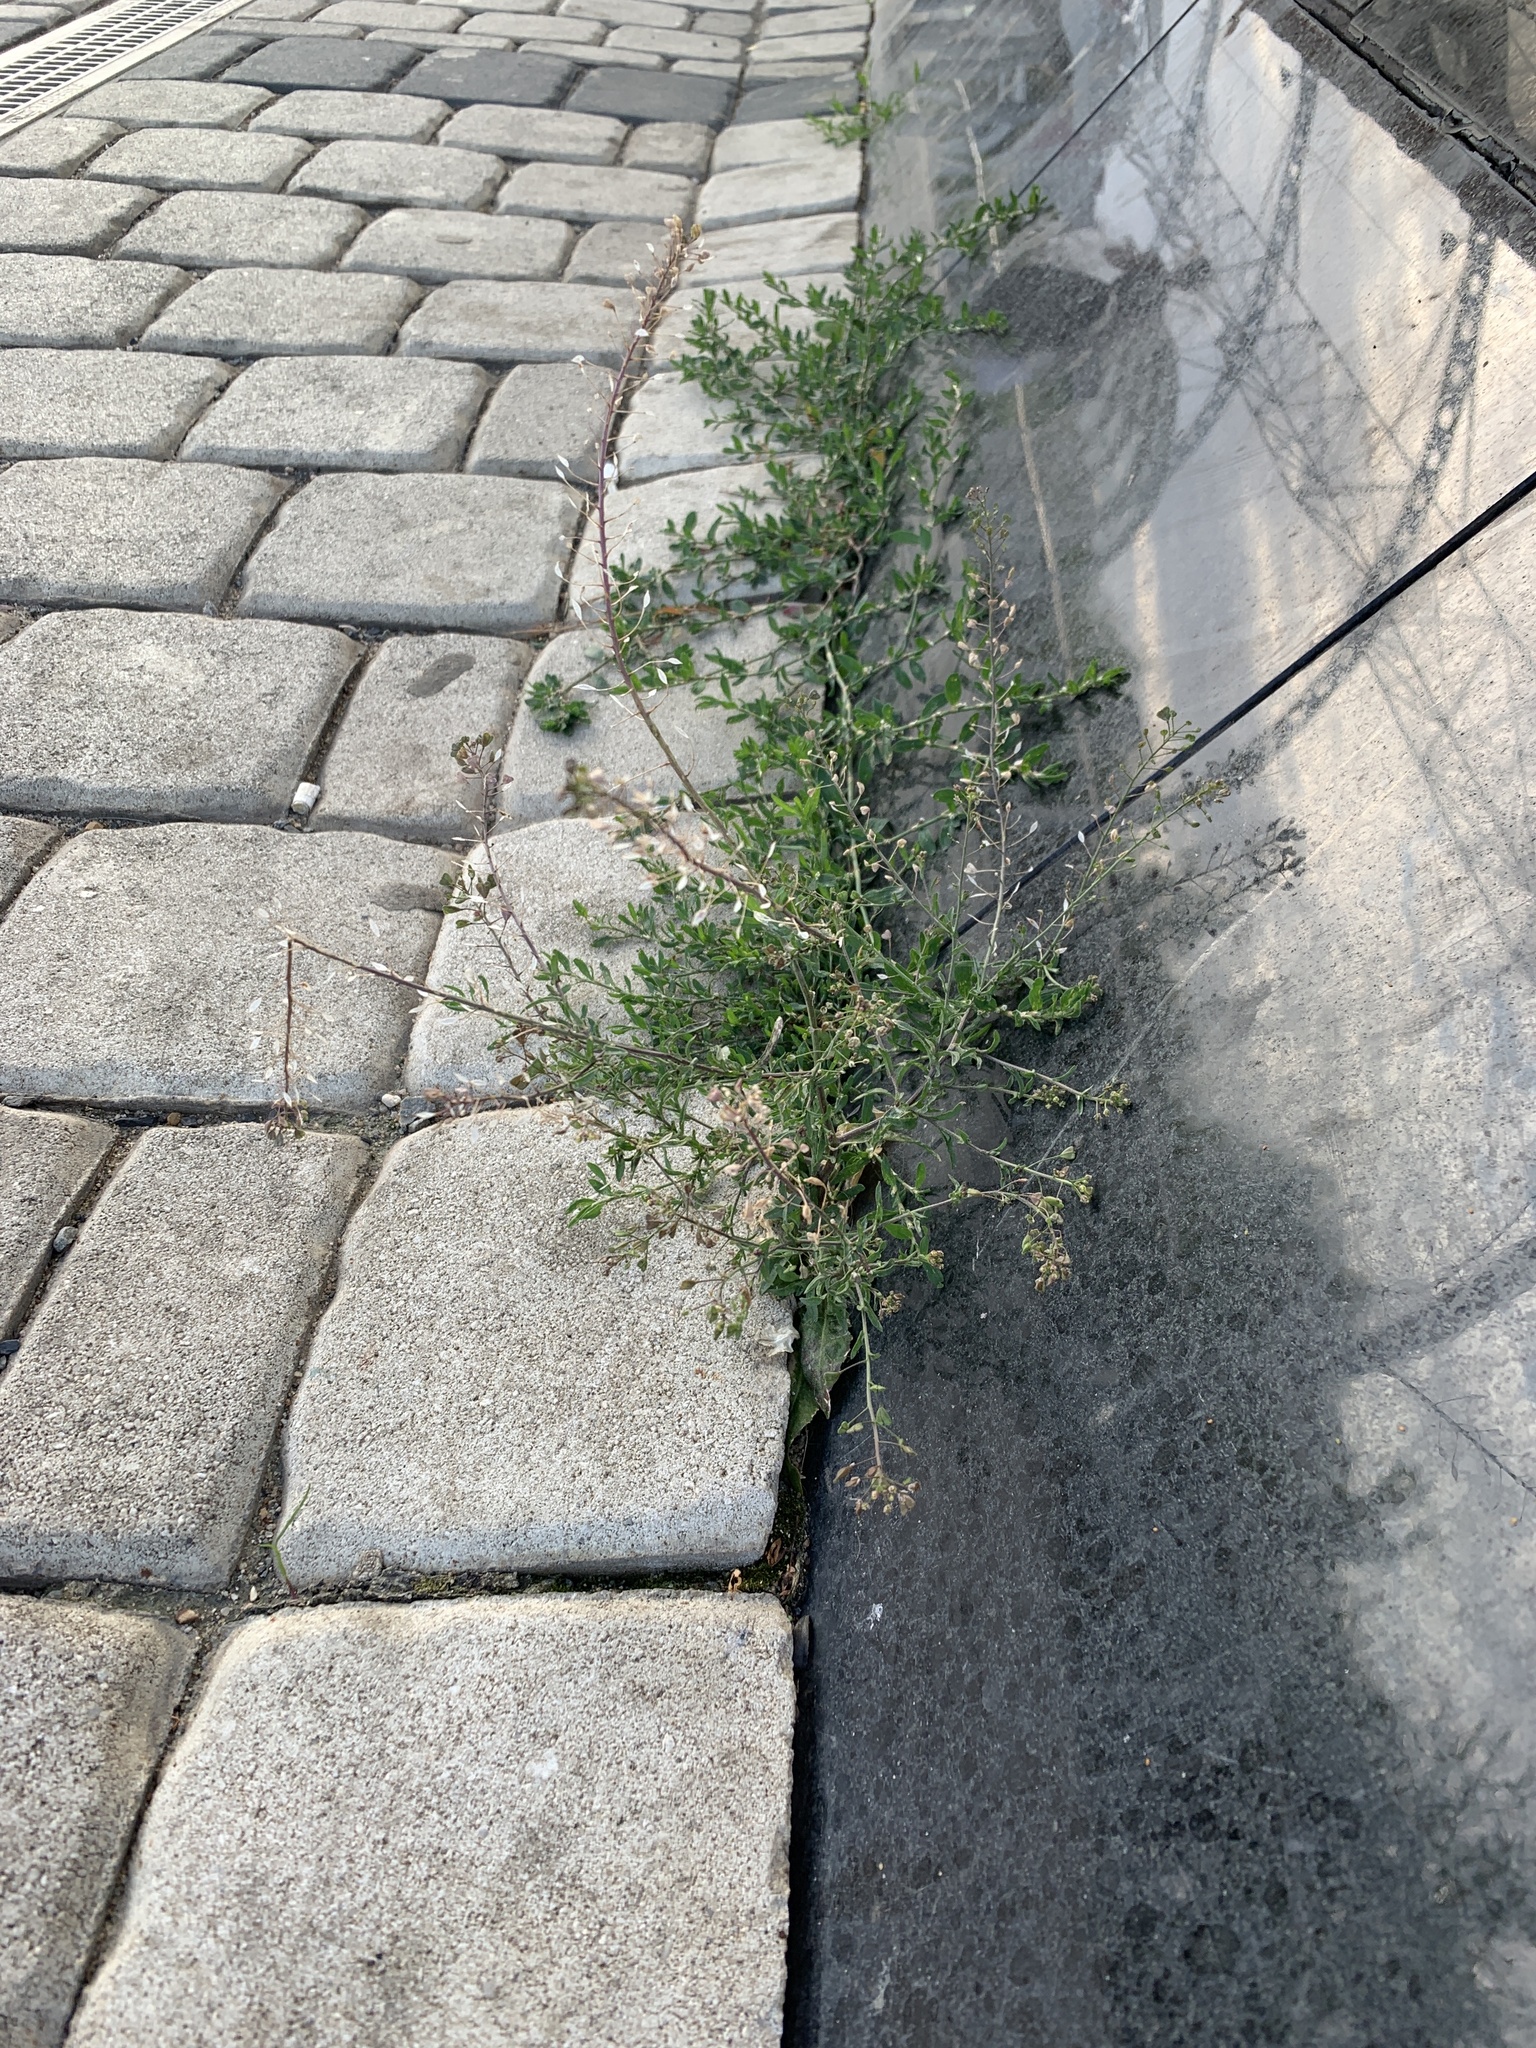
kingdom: Plantae
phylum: Tracheophyta
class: Magnoliopsida
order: Brassicales
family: Brassicaceae
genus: Capsella
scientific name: Capsella bursa-pastoris
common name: Shepherd's purse
